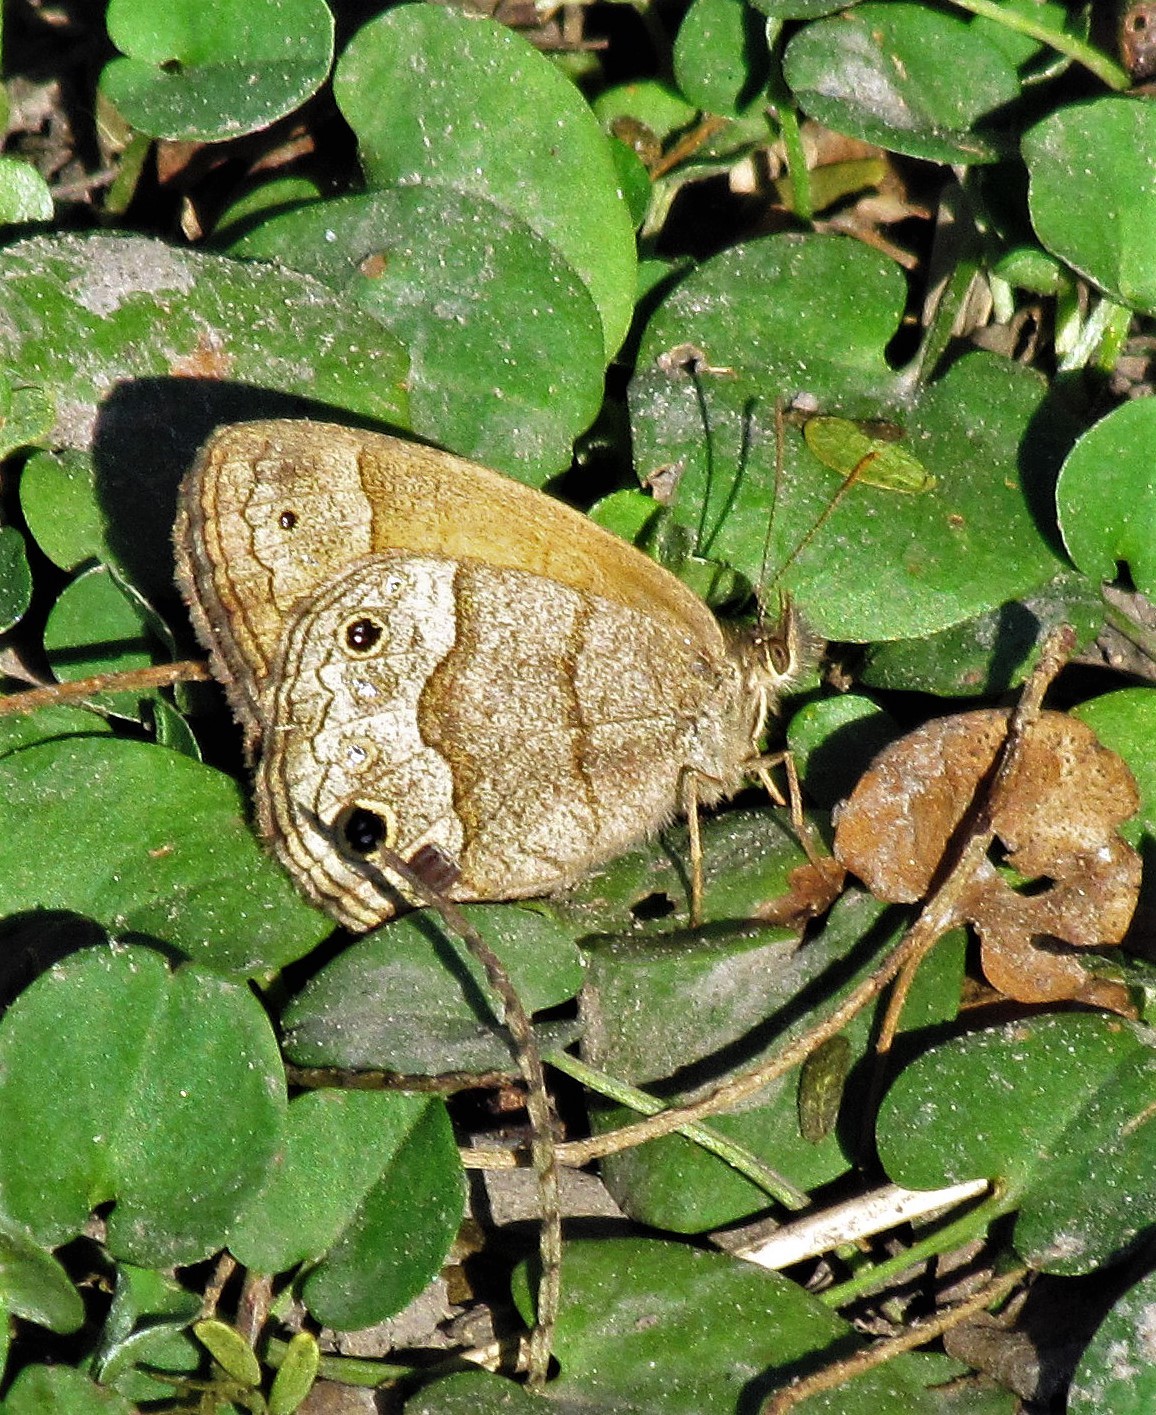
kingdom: Animalia
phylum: Arthropoda
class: Insecta
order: Lepidoptera
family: Nymphalidae
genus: Pharneuptychia
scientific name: Pharneuptychia phares
